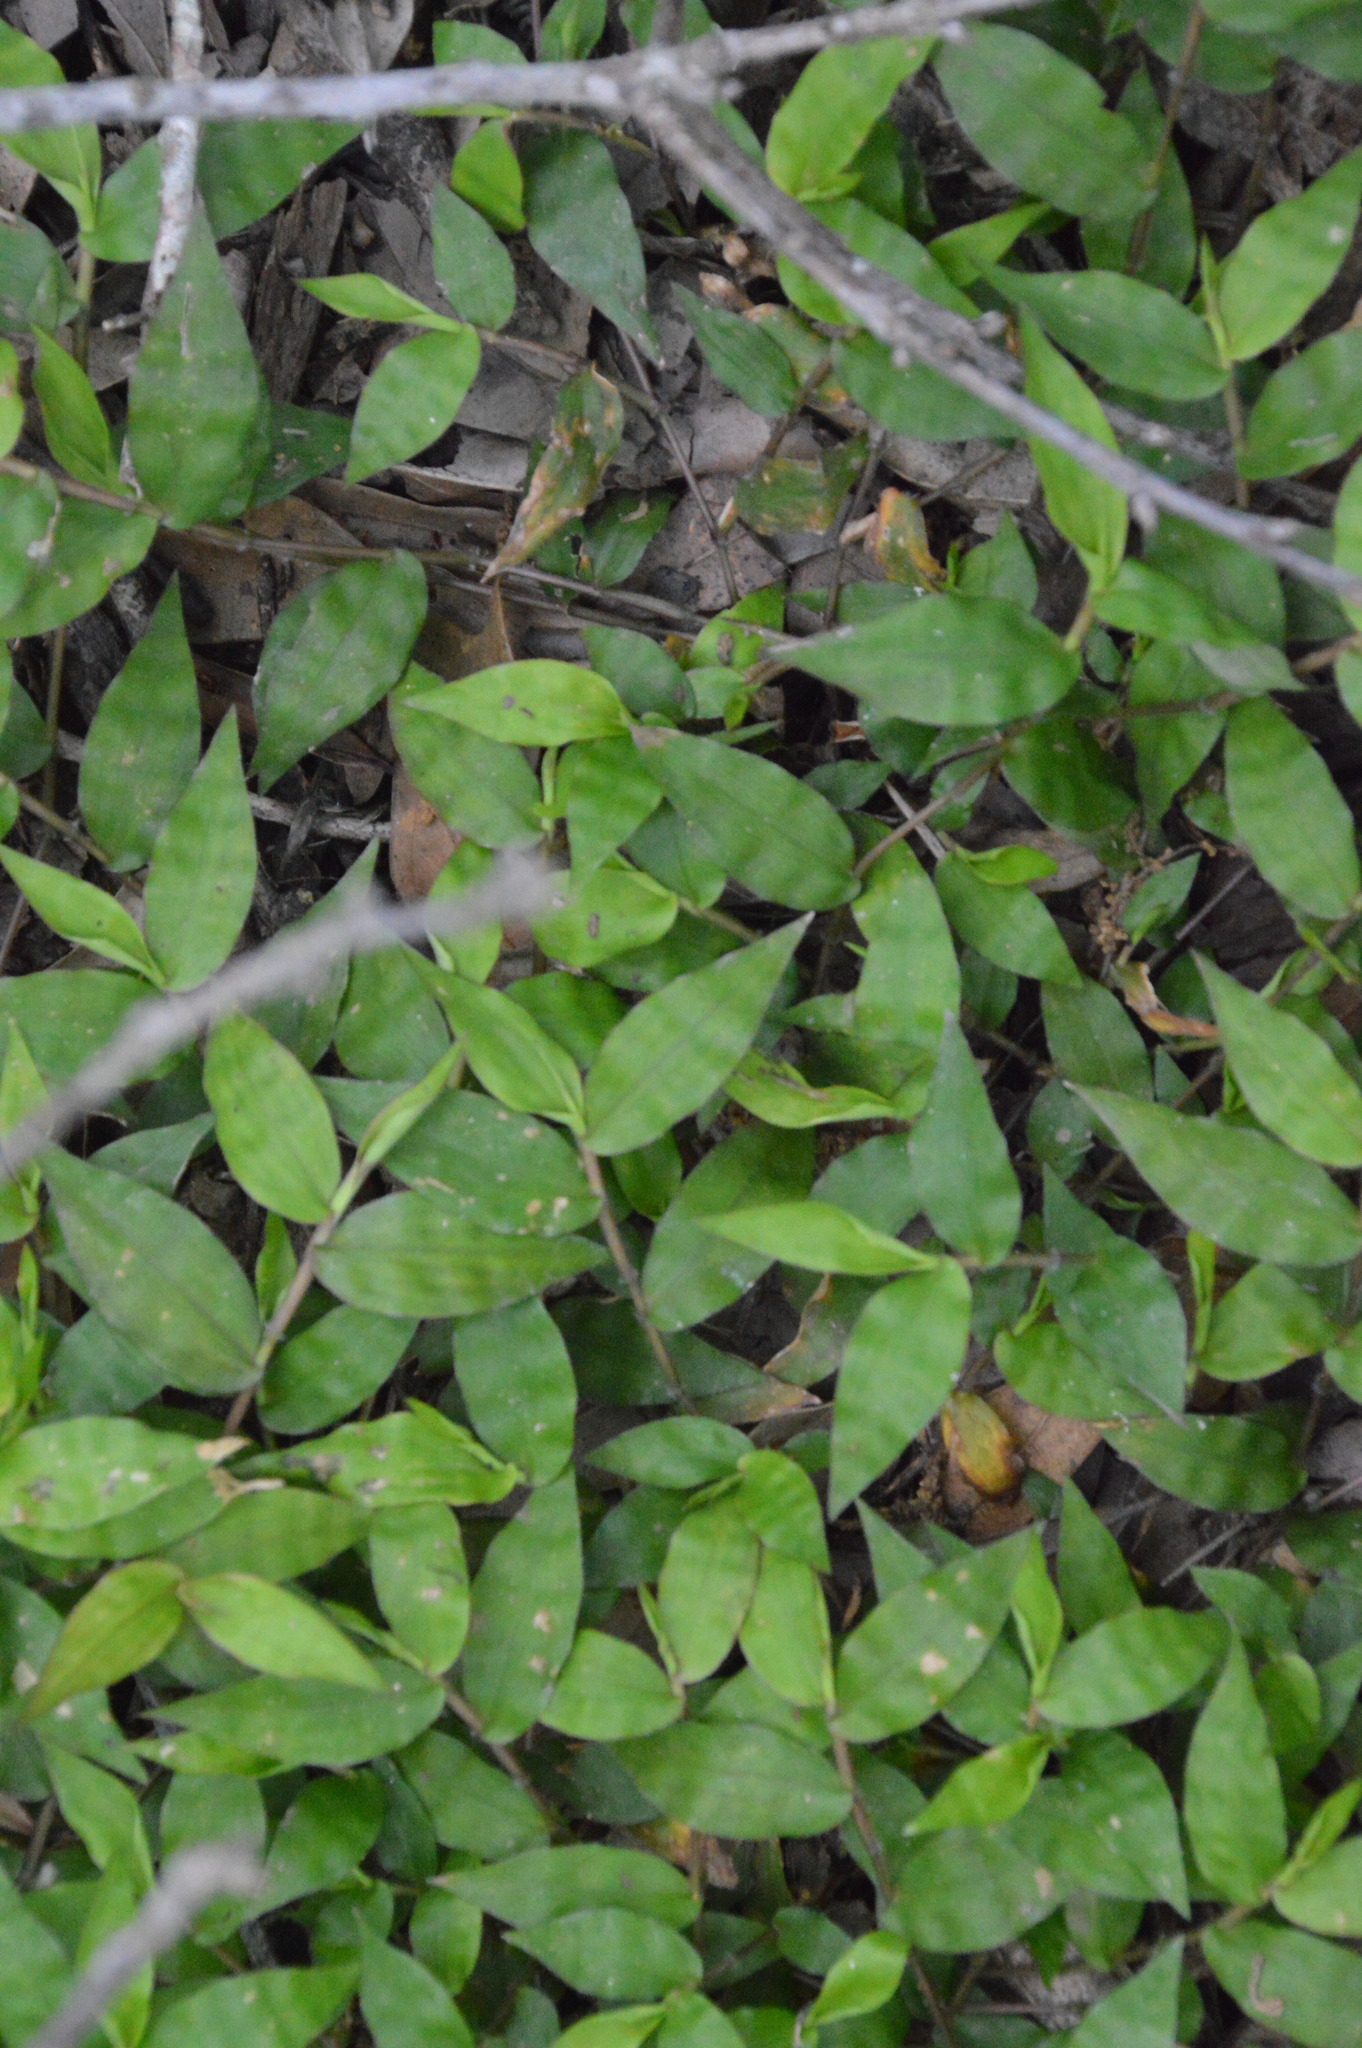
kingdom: Plantae
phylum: Tracheophyta
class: Liliopsida
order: Poales
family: Poaceae
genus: Oplismenus
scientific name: Oplismenus hirtellus
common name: Basketgrass
